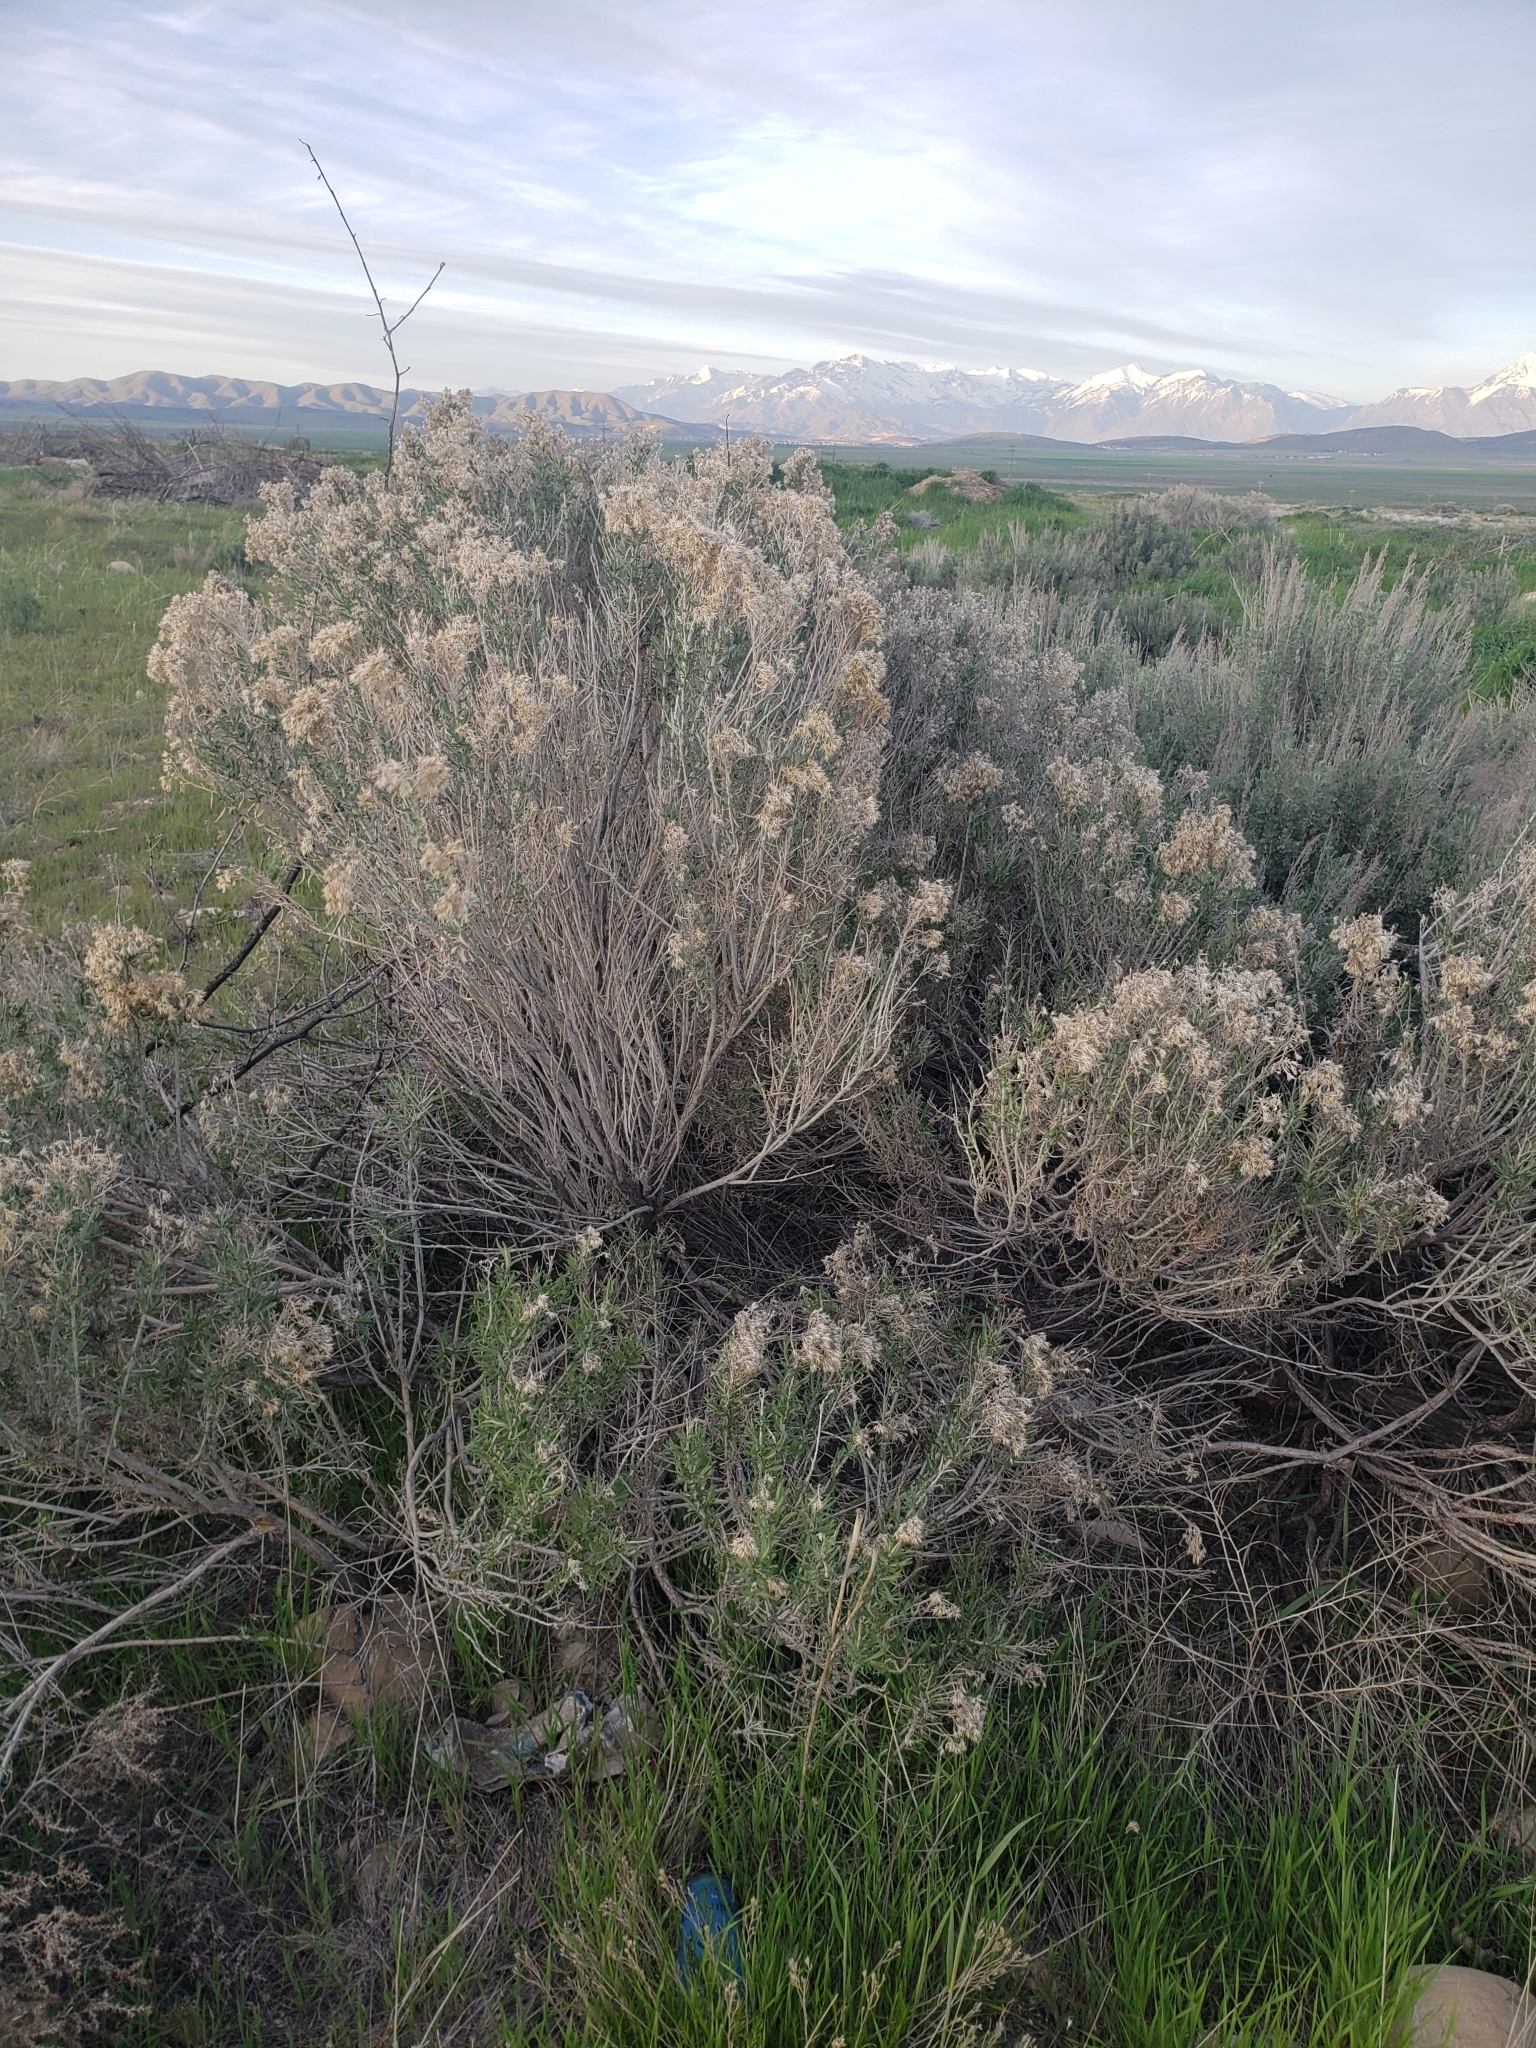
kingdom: Plantae
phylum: Tracheophyta
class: Magnoliopsida
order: Asterales
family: Asteraceae
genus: Ericameria
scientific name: Ericameria nauseosa
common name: Rubber rabbitbrush
